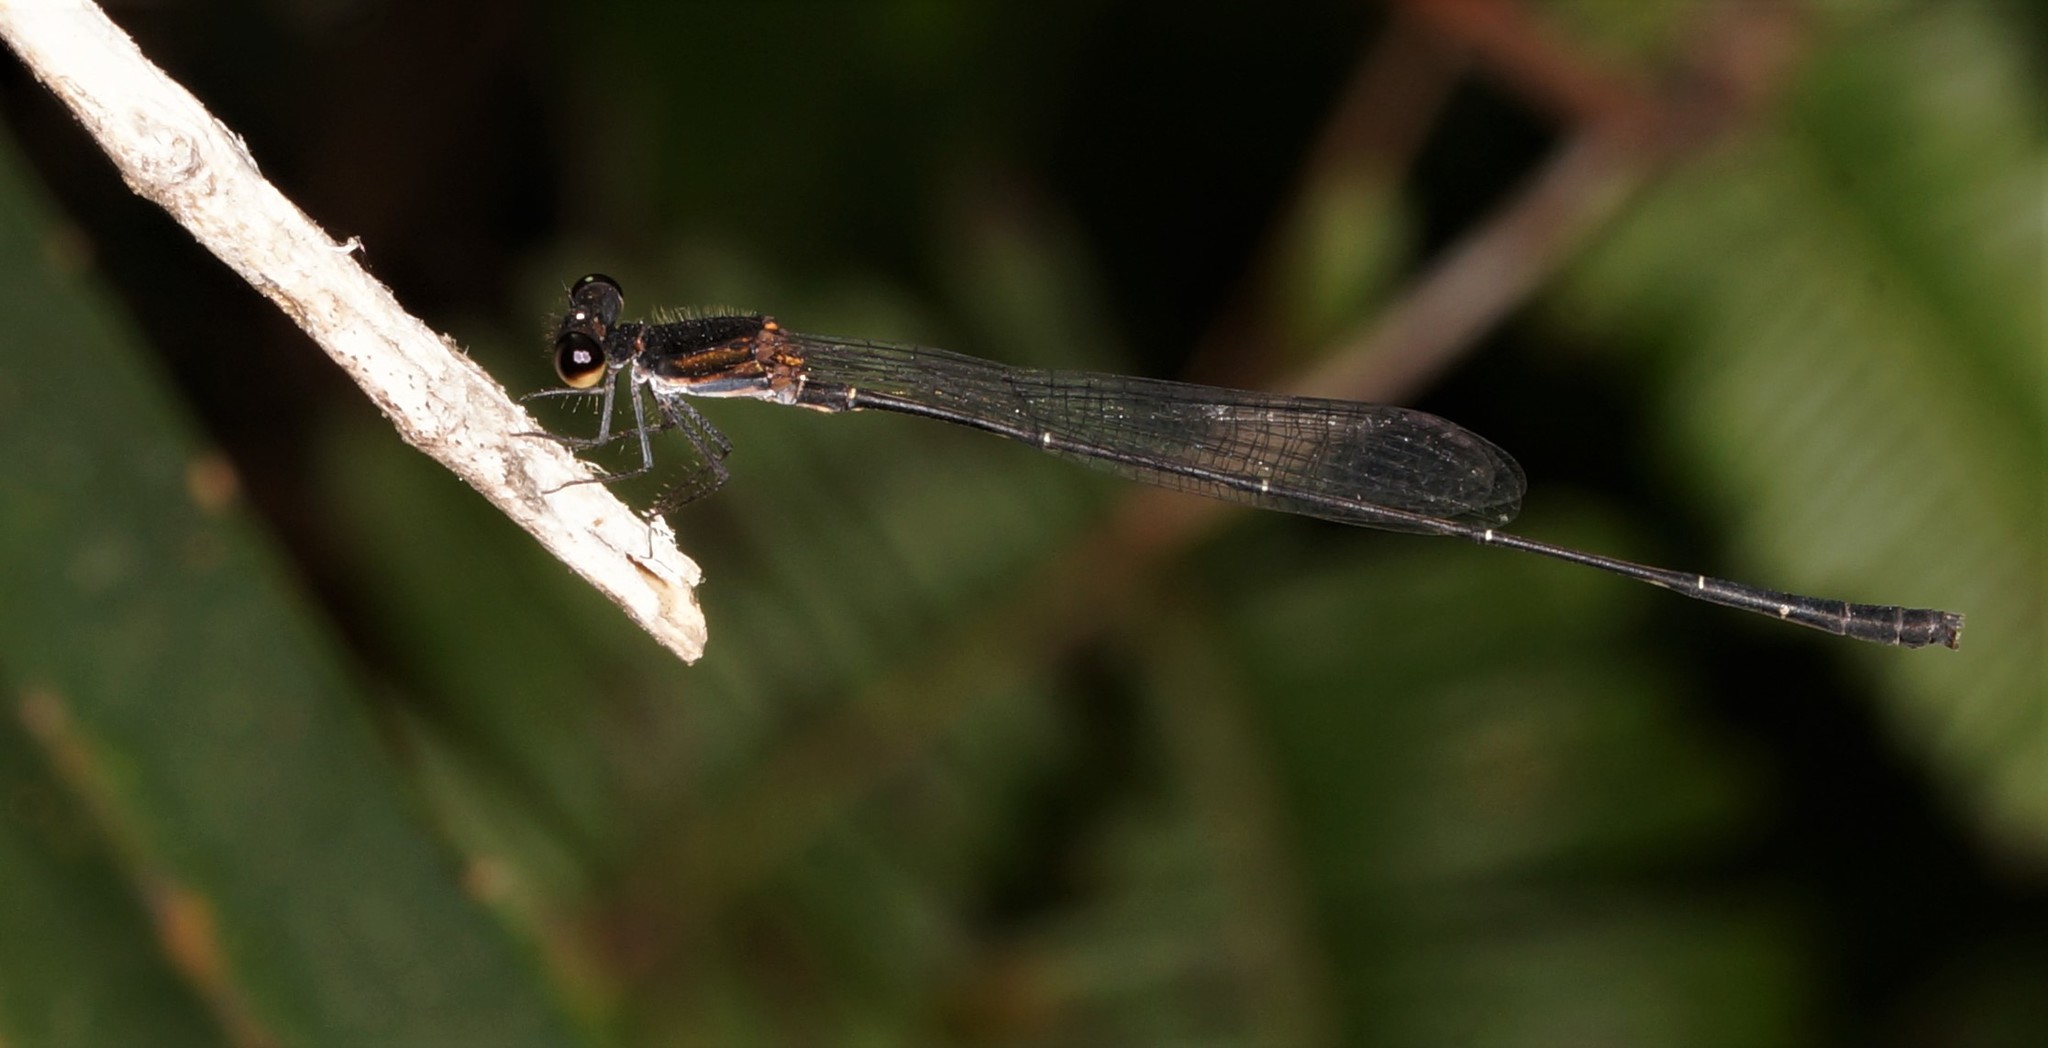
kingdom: Animalia
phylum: Arthropoda
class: Insecta
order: Odonata
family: Platycnemididae
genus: Prodasineura
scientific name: Prodasineura autumnalis
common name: Black threadtail
